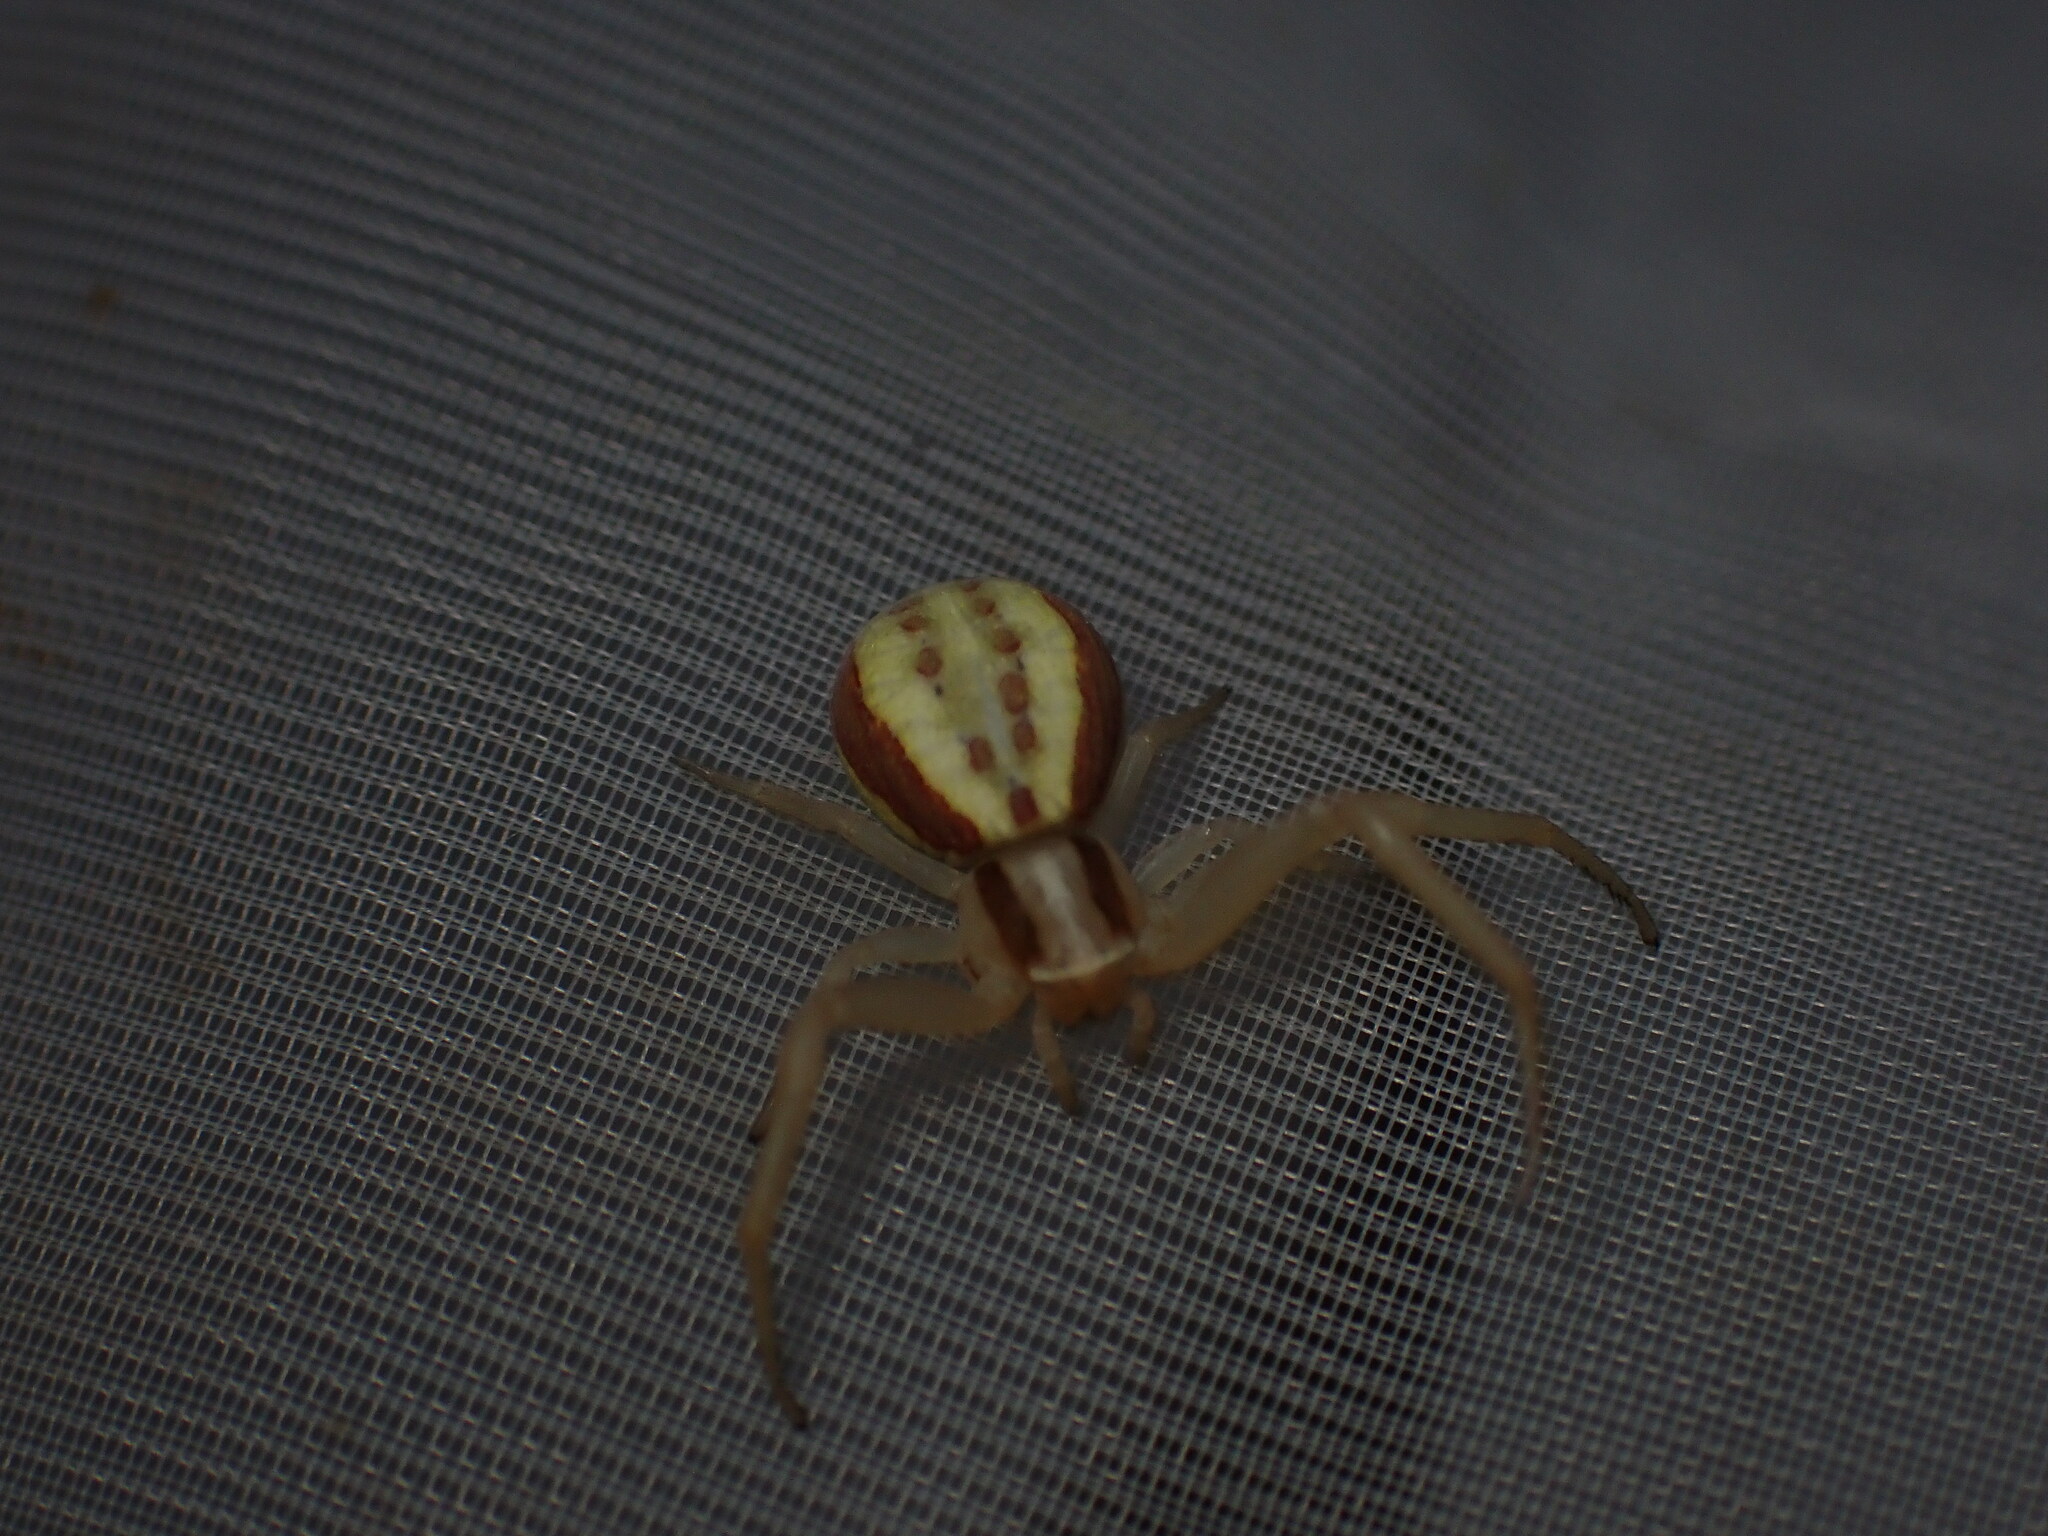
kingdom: Animalia
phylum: Arthropoda
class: Arachnida
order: Araneae
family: Thomisidae
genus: Runcinia
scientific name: Runcinia grammica
